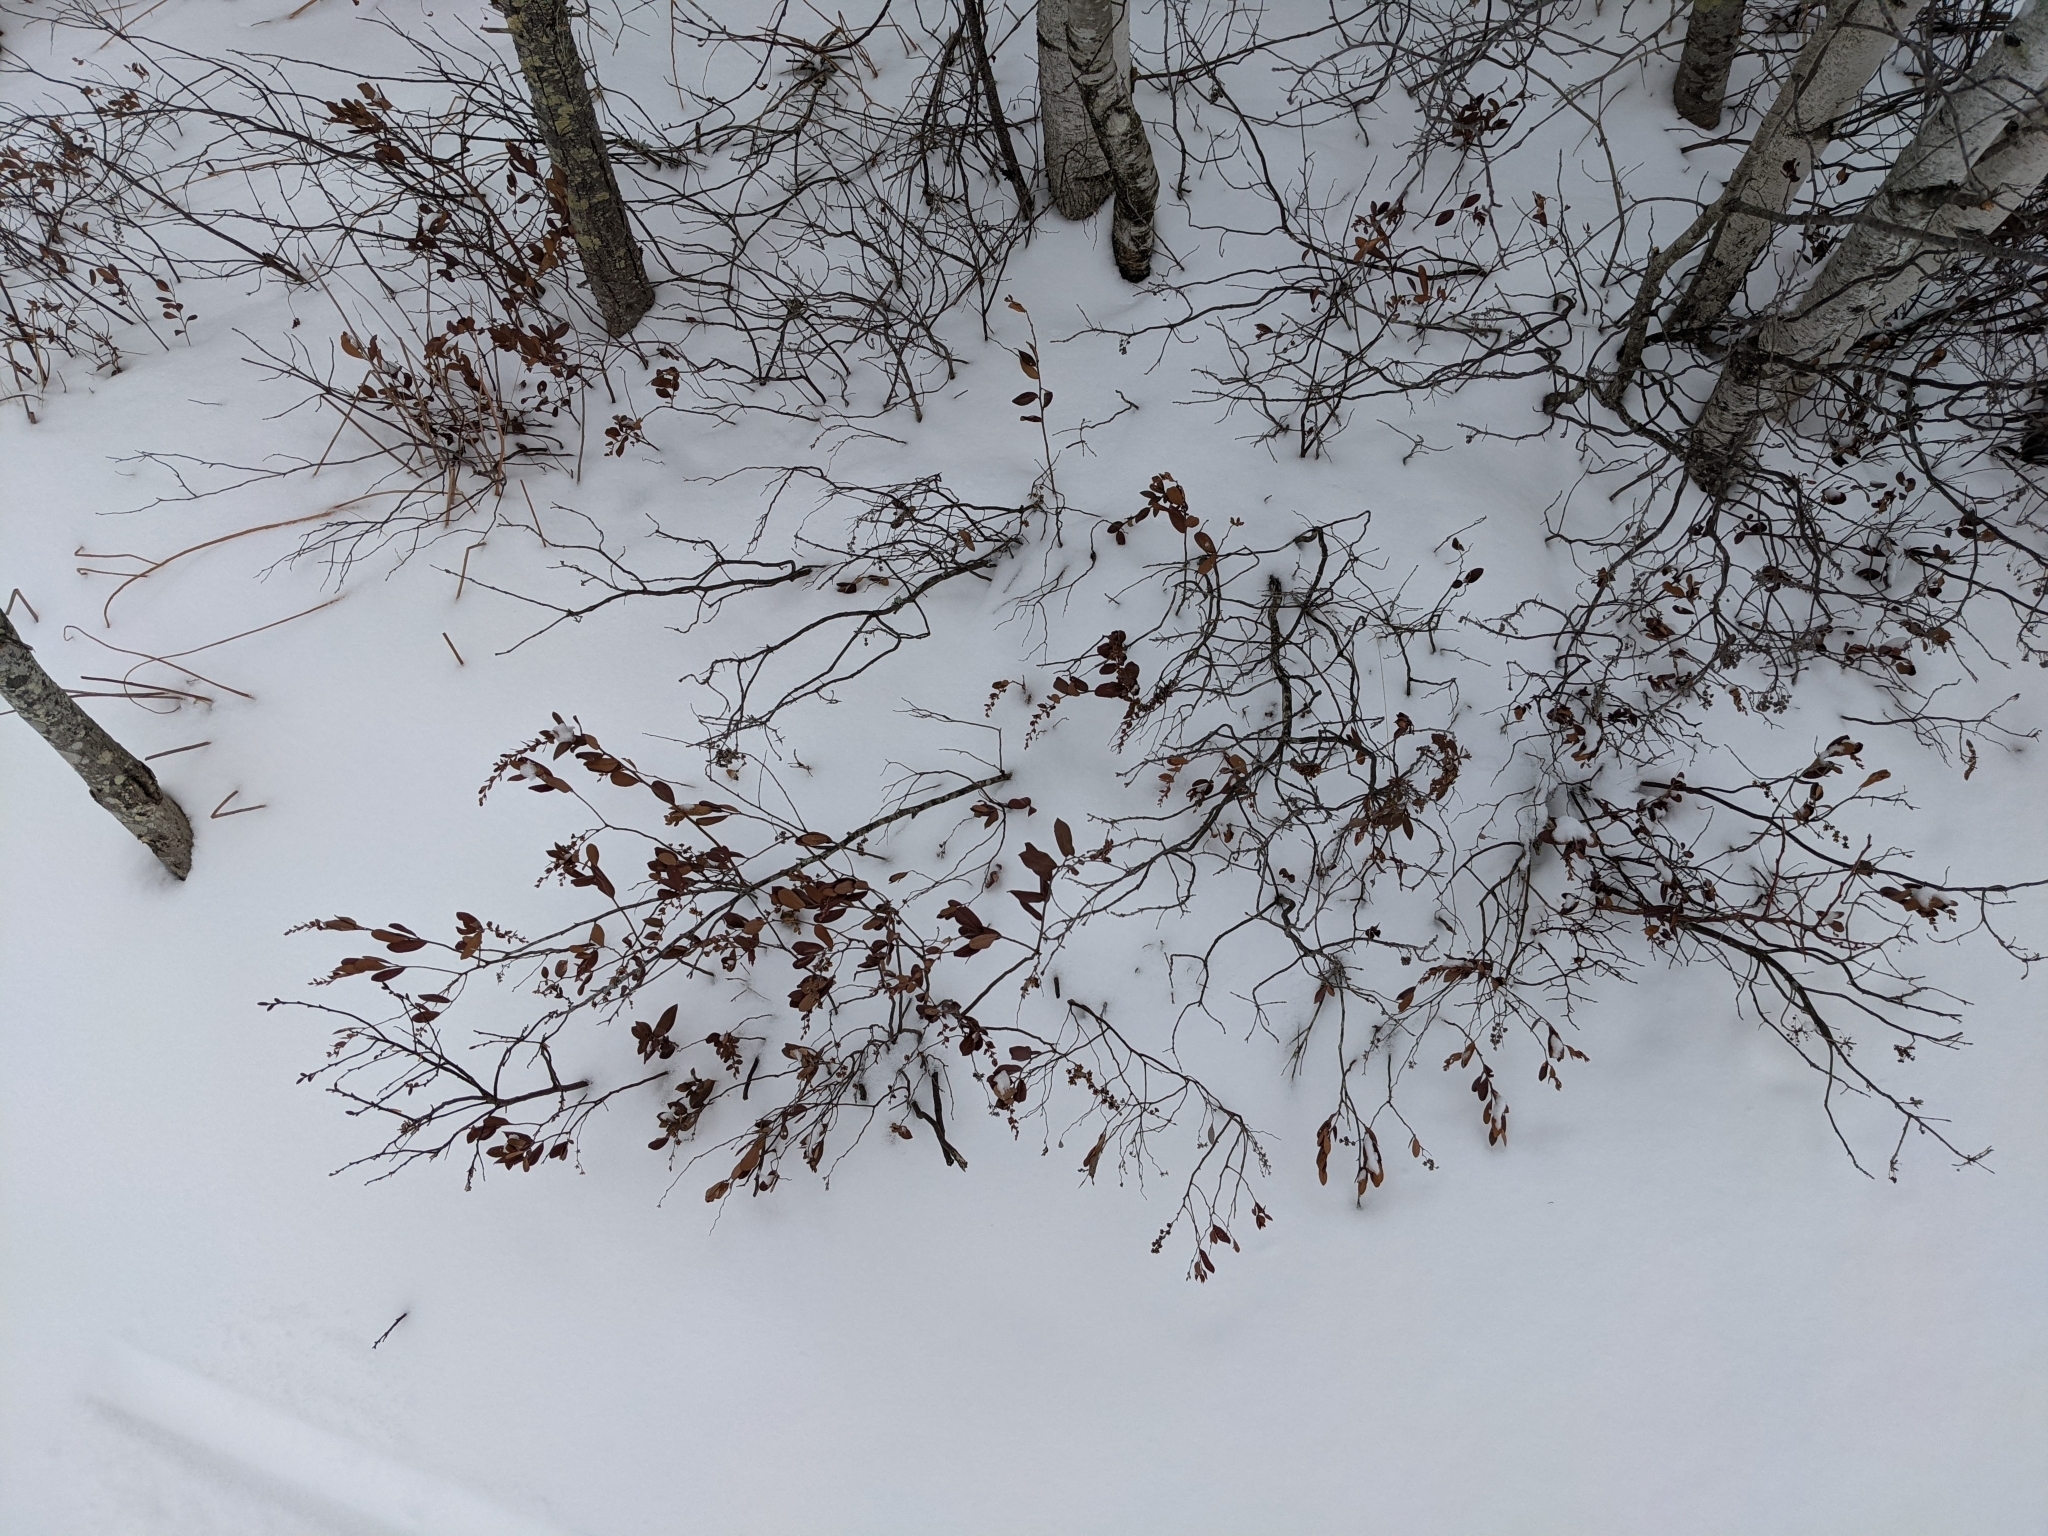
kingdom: Plantae
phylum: Tracheophyta
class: Magnoliopsida
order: Ericales
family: Ericaceae
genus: Chamaedaphne
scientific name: Chamaedaphne calyculata
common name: Leatherleaf
